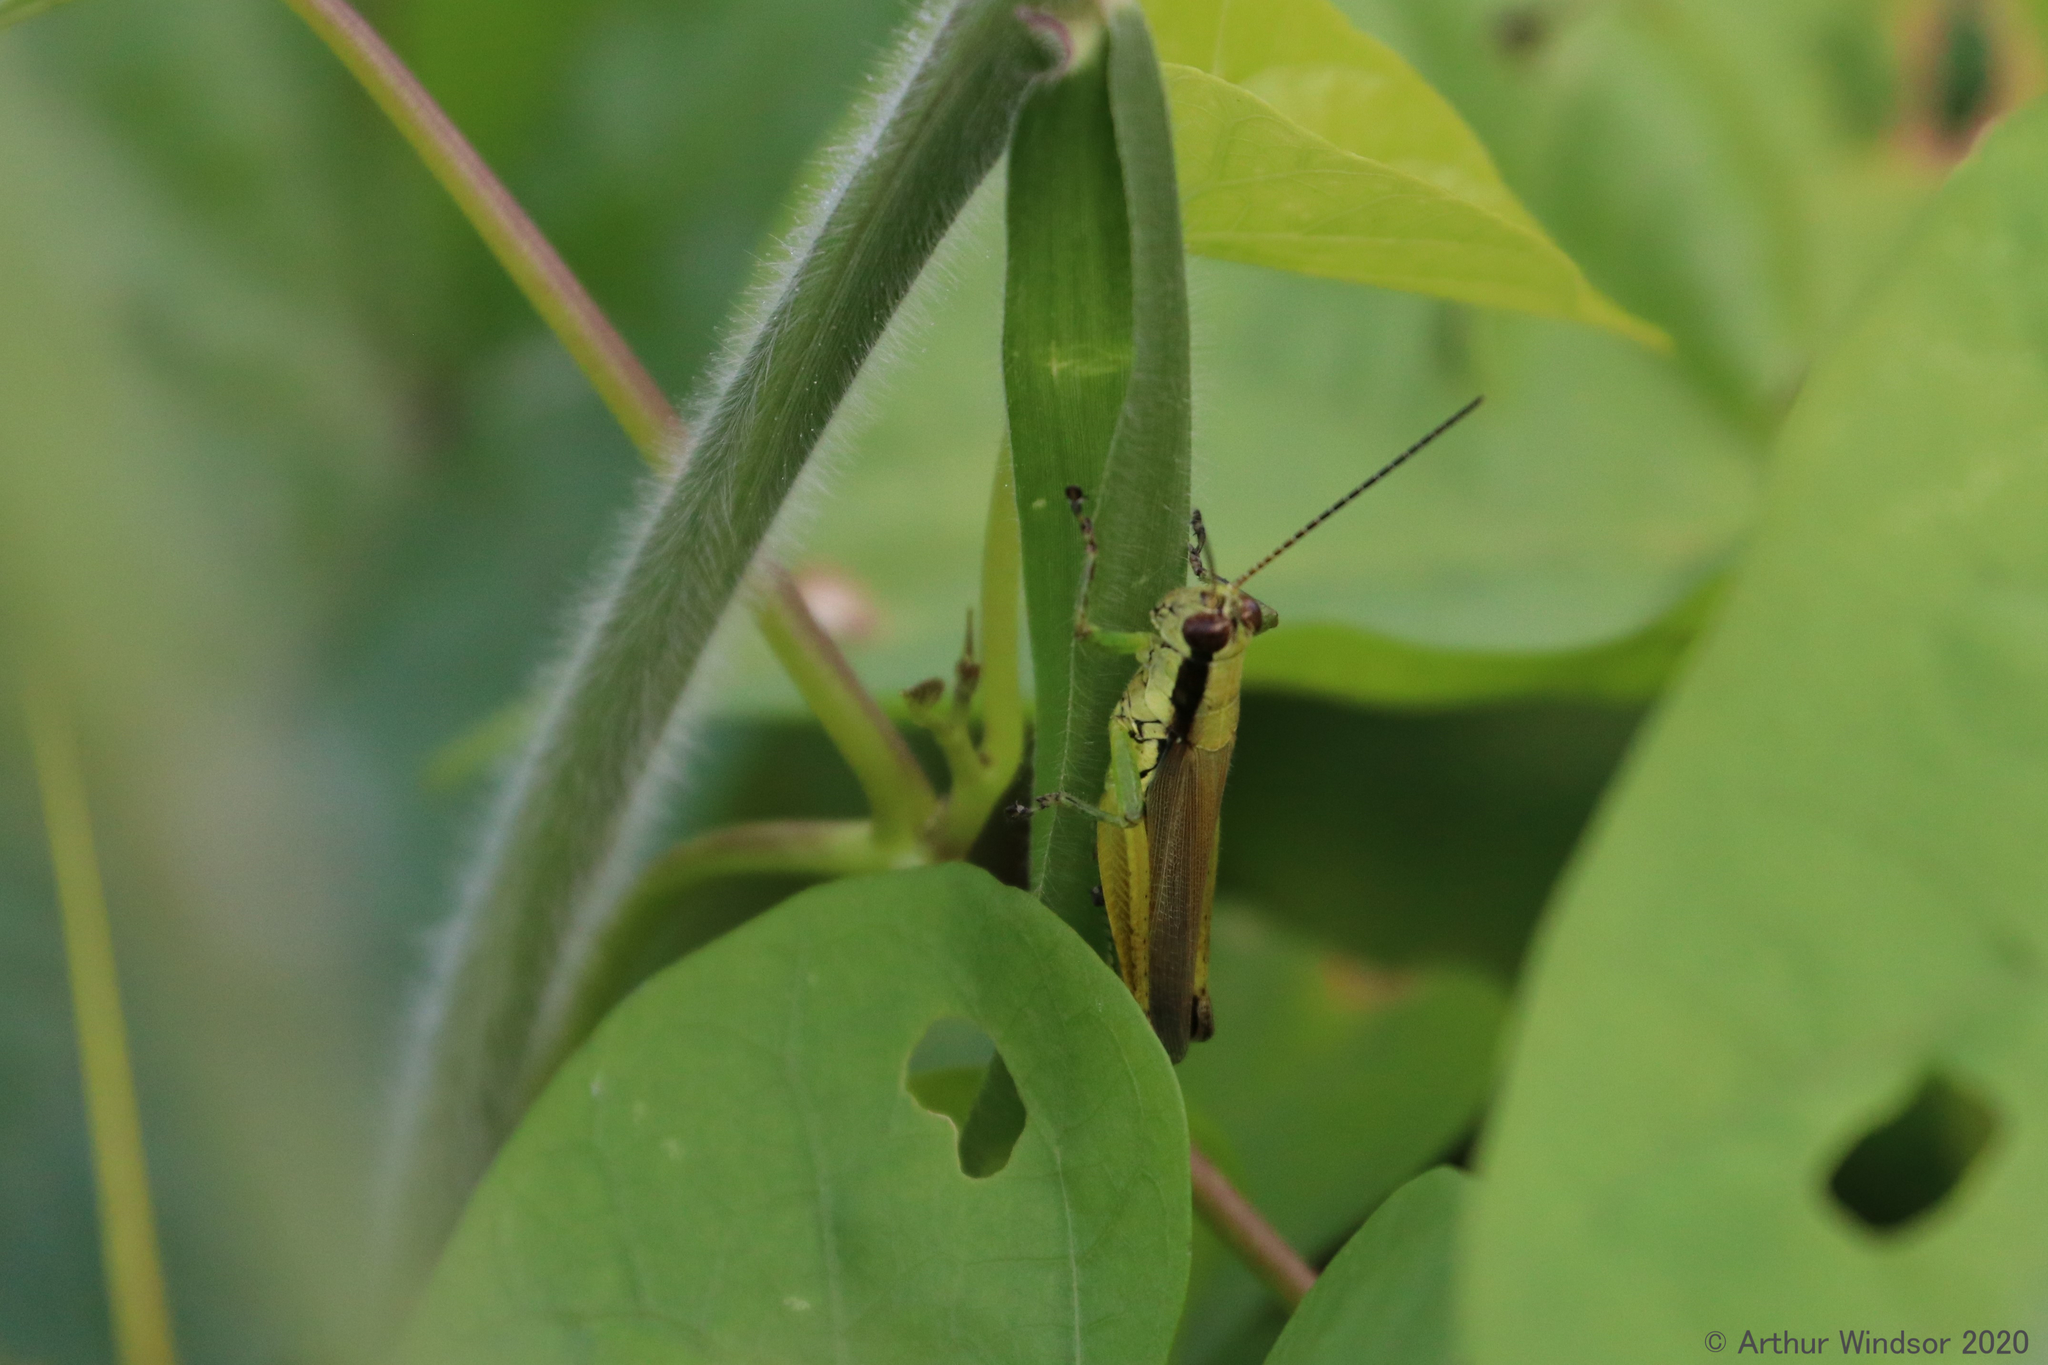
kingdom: Animalia
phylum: Arthropoda
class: Insecta
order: Orthoptera
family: Acrididae
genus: Paroxya
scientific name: Paroxya clavuligera
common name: Olive-green swamp grasshopper
